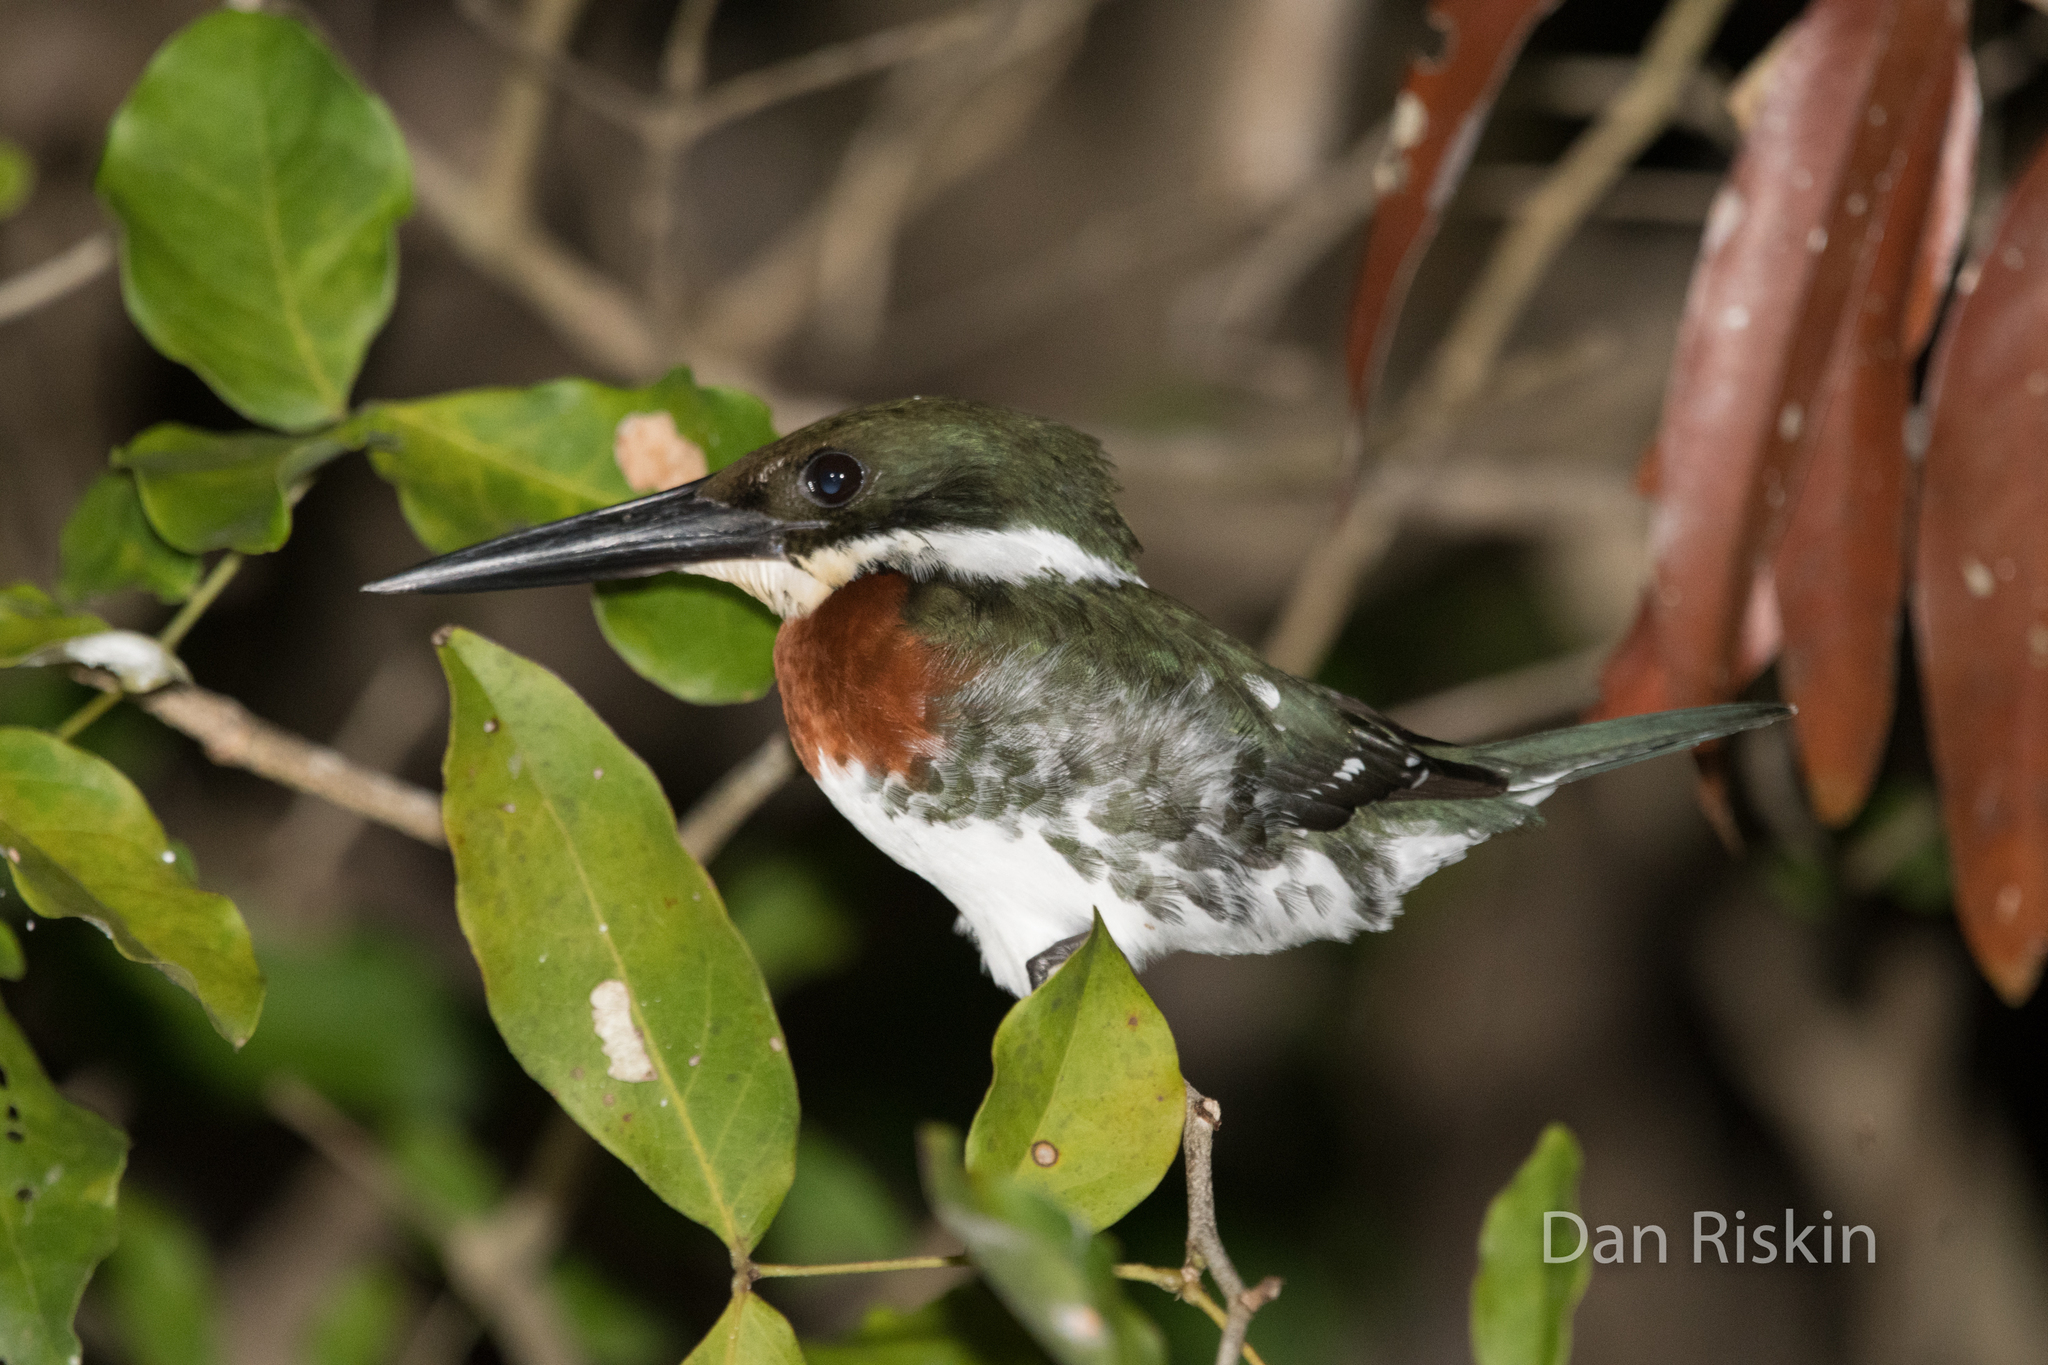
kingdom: Animalia
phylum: Chordata
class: Aves
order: Coraciiformes
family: Alcedinidae
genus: Chloroceryle
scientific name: Chloroceryle americana
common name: Green kingfisher
